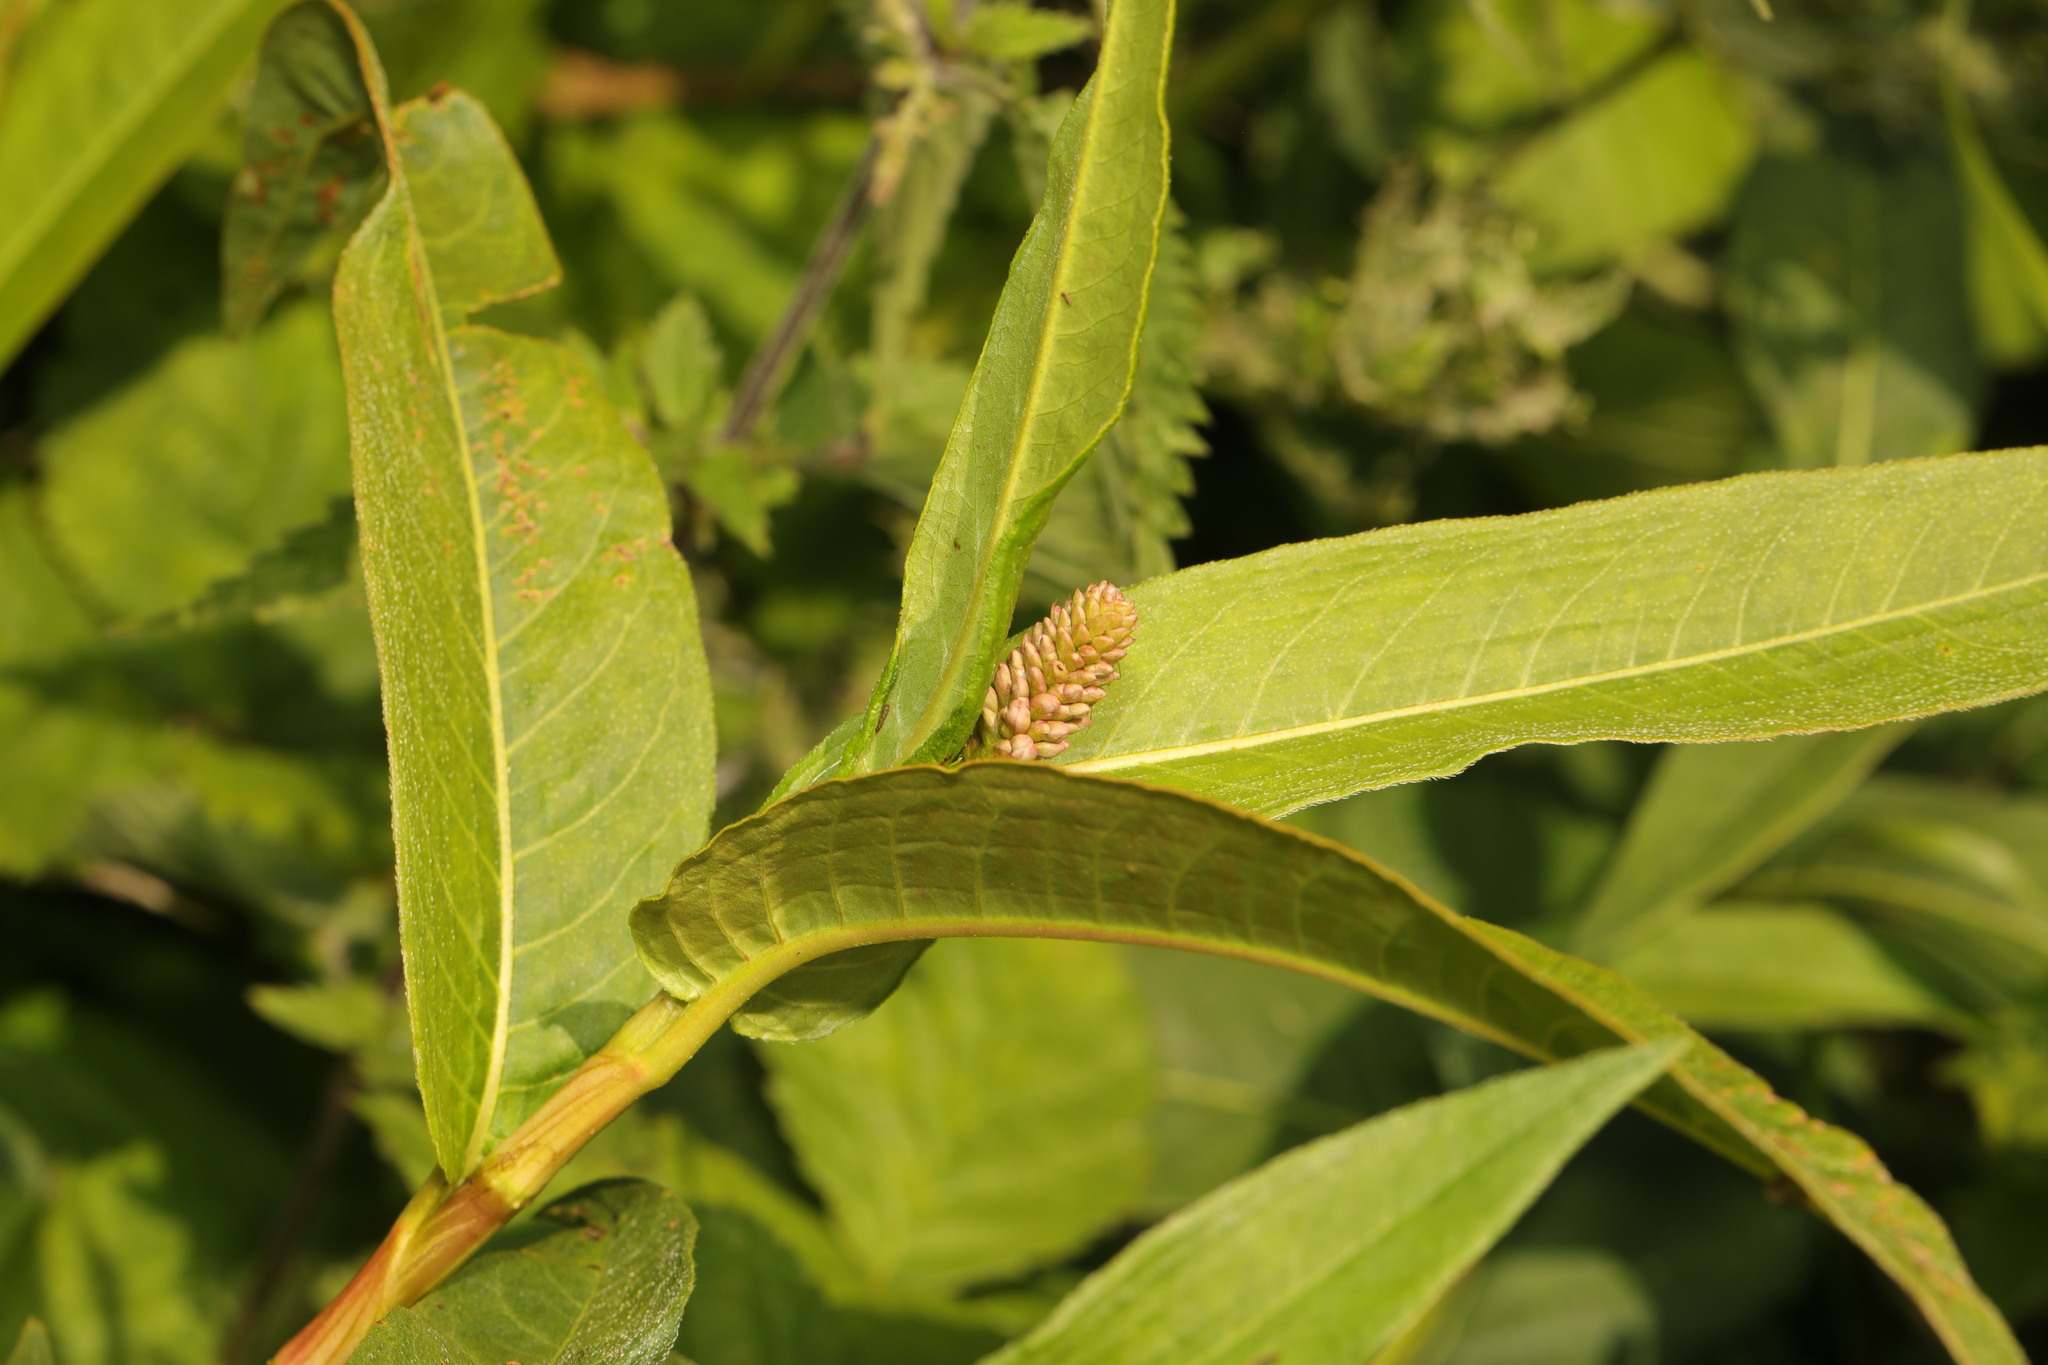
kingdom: Plantae
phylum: Tracheophyta
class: Magnoliopsida
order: Caryophyllales
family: Polygonaceae
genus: Persicaria
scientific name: Persicaria amphibia
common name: Amphibious bistort
